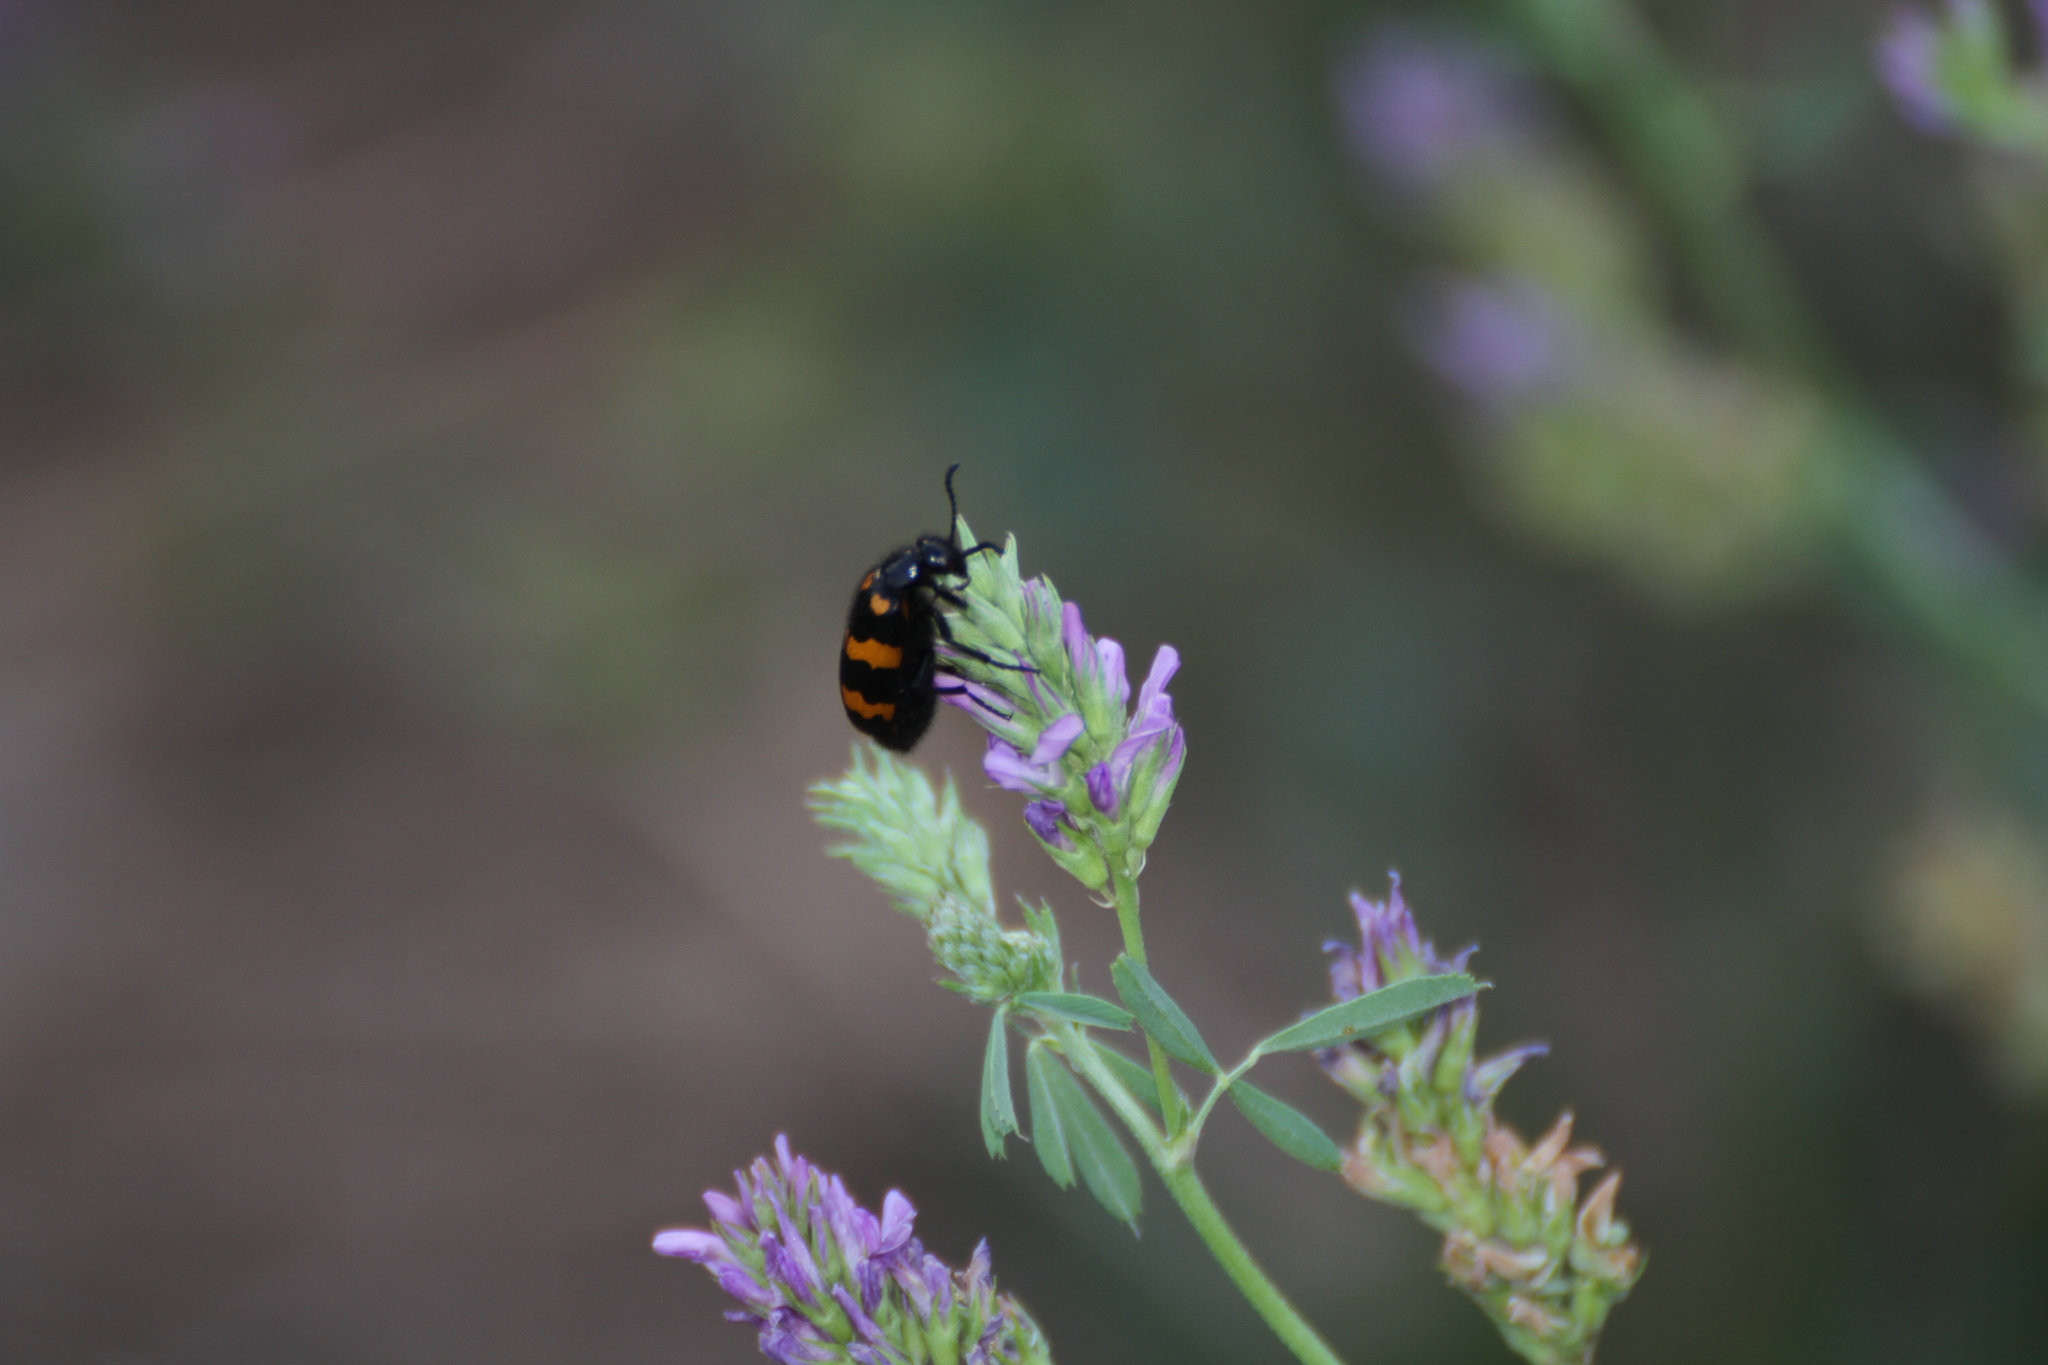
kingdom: Animalia
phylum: Arthropoda
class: Insecta
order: Coleoptera
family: Meloidae
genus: Mylabris
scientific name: Mylabris variabilis
